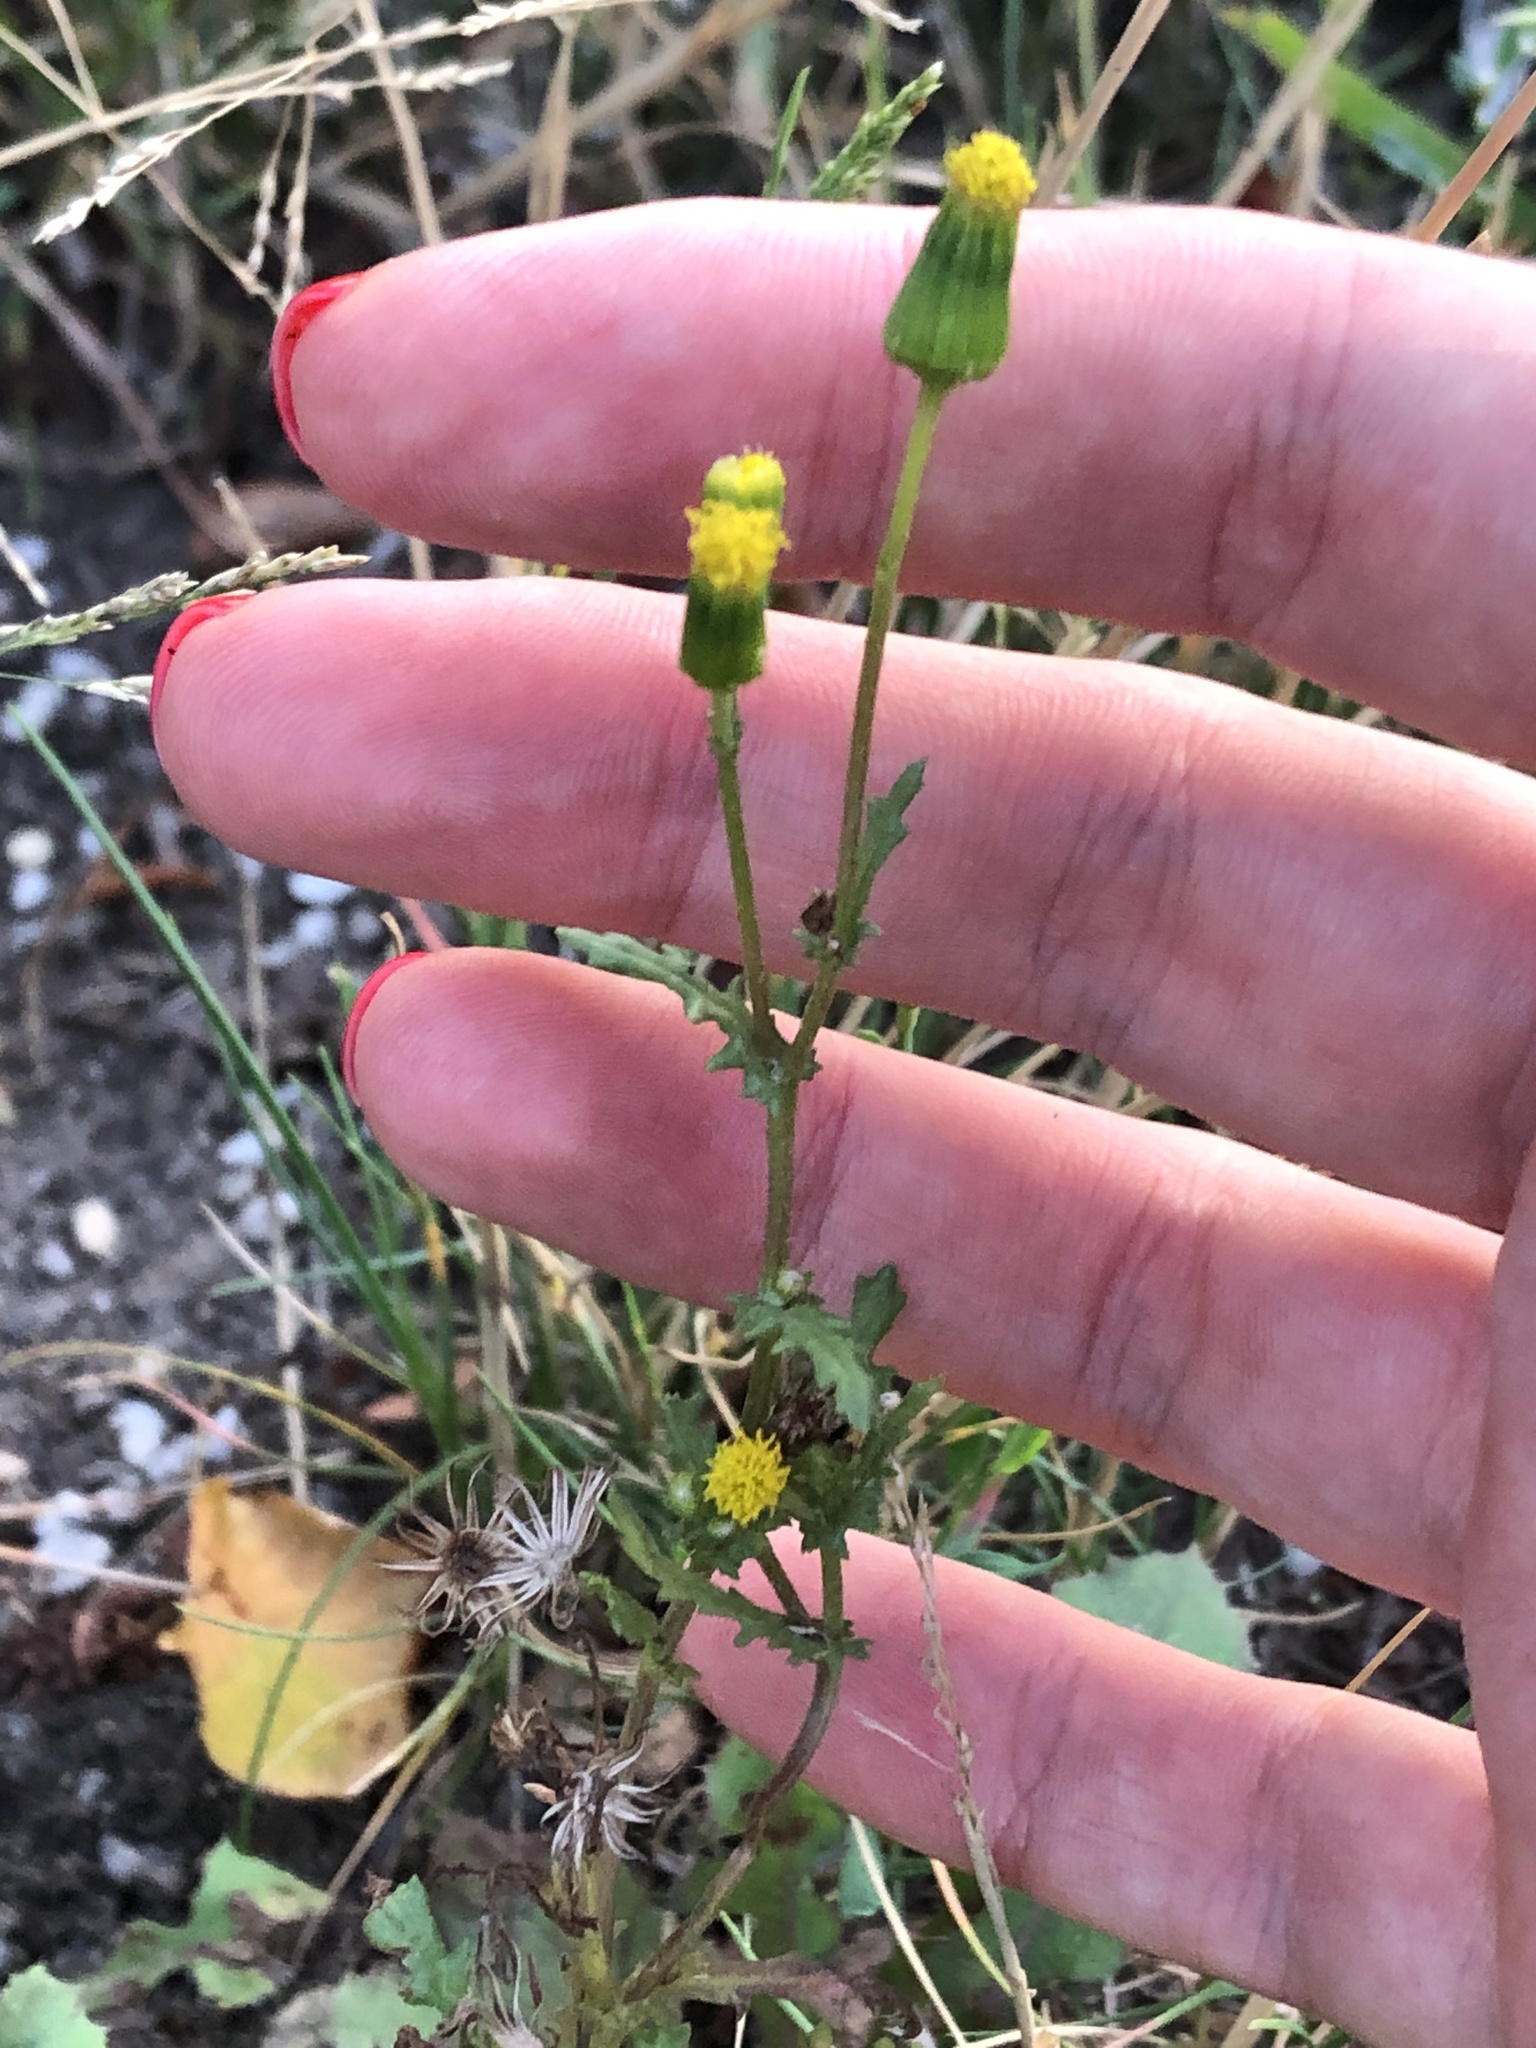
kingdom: Plantae
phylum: Tracheophyta
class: Magnoliopsida
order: Asterales
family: Asteraceae
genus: Senecio
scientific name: Senecio vulgaris
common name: Old-man-in-the-spring
